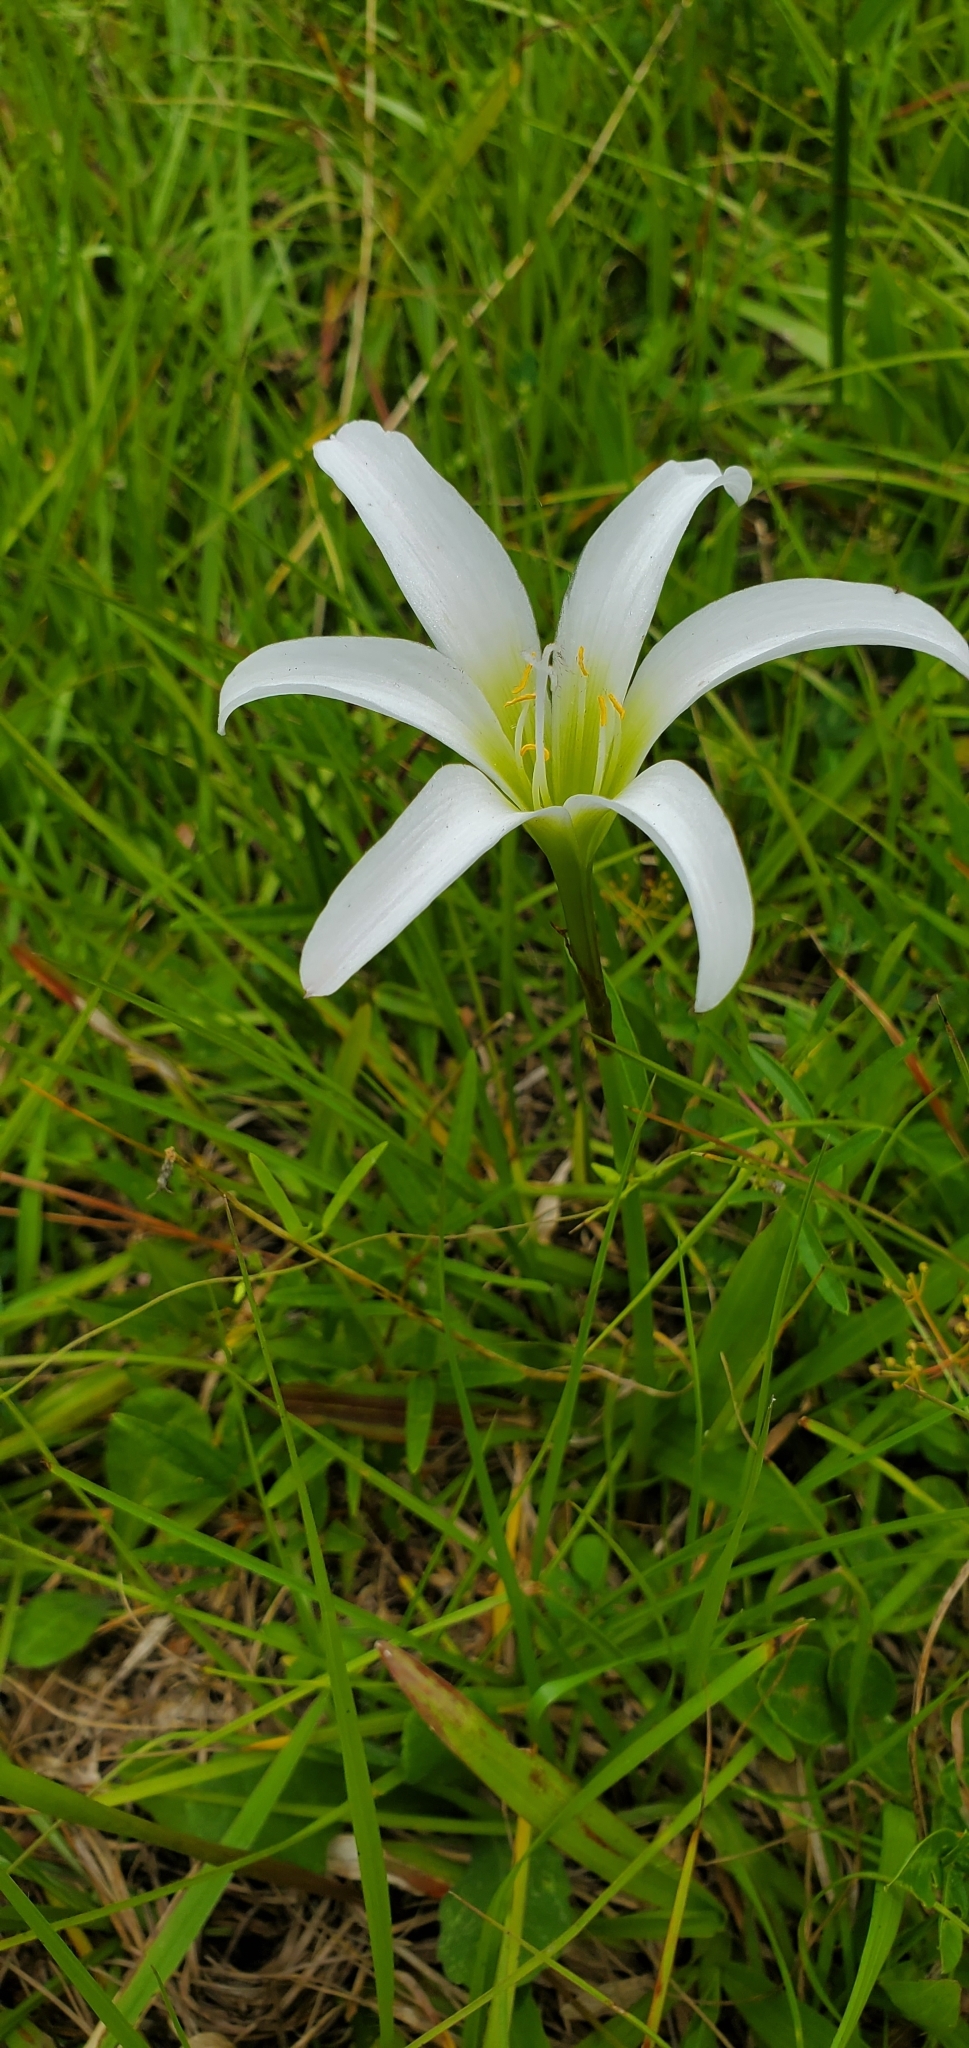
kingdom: Plantae
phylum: Tracheophyta
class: Liliopsida
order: Asparagales
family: Amaryllidaceae
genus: Zephyranthes
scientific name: Zephyranthes atamasco
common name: Atamasco lily
